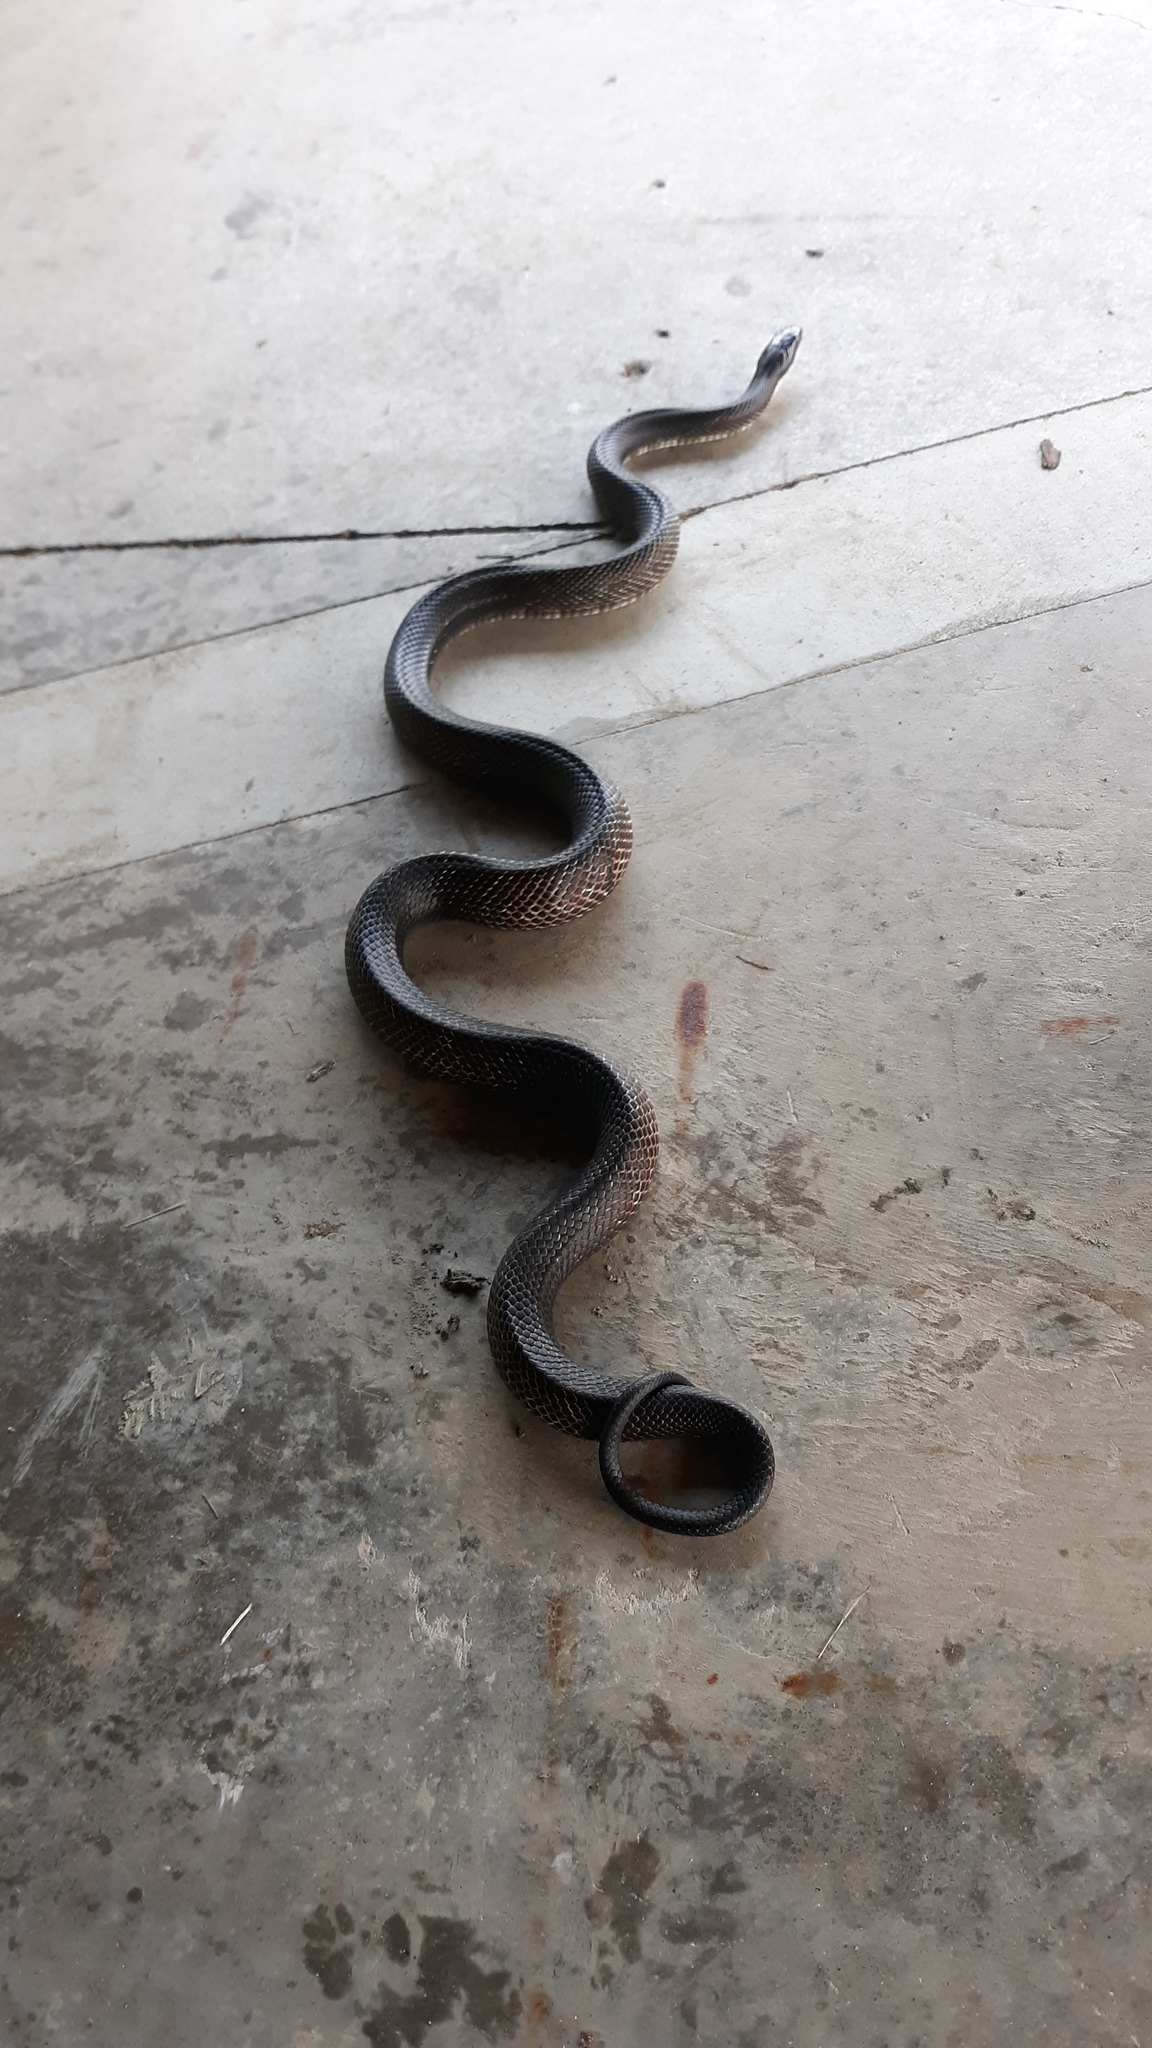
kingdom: Animalia
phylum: Chordata
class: Squamata
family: Colubridae
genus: Pantherophis
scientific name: Pantherophis spiloides
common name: Gray rat snake
